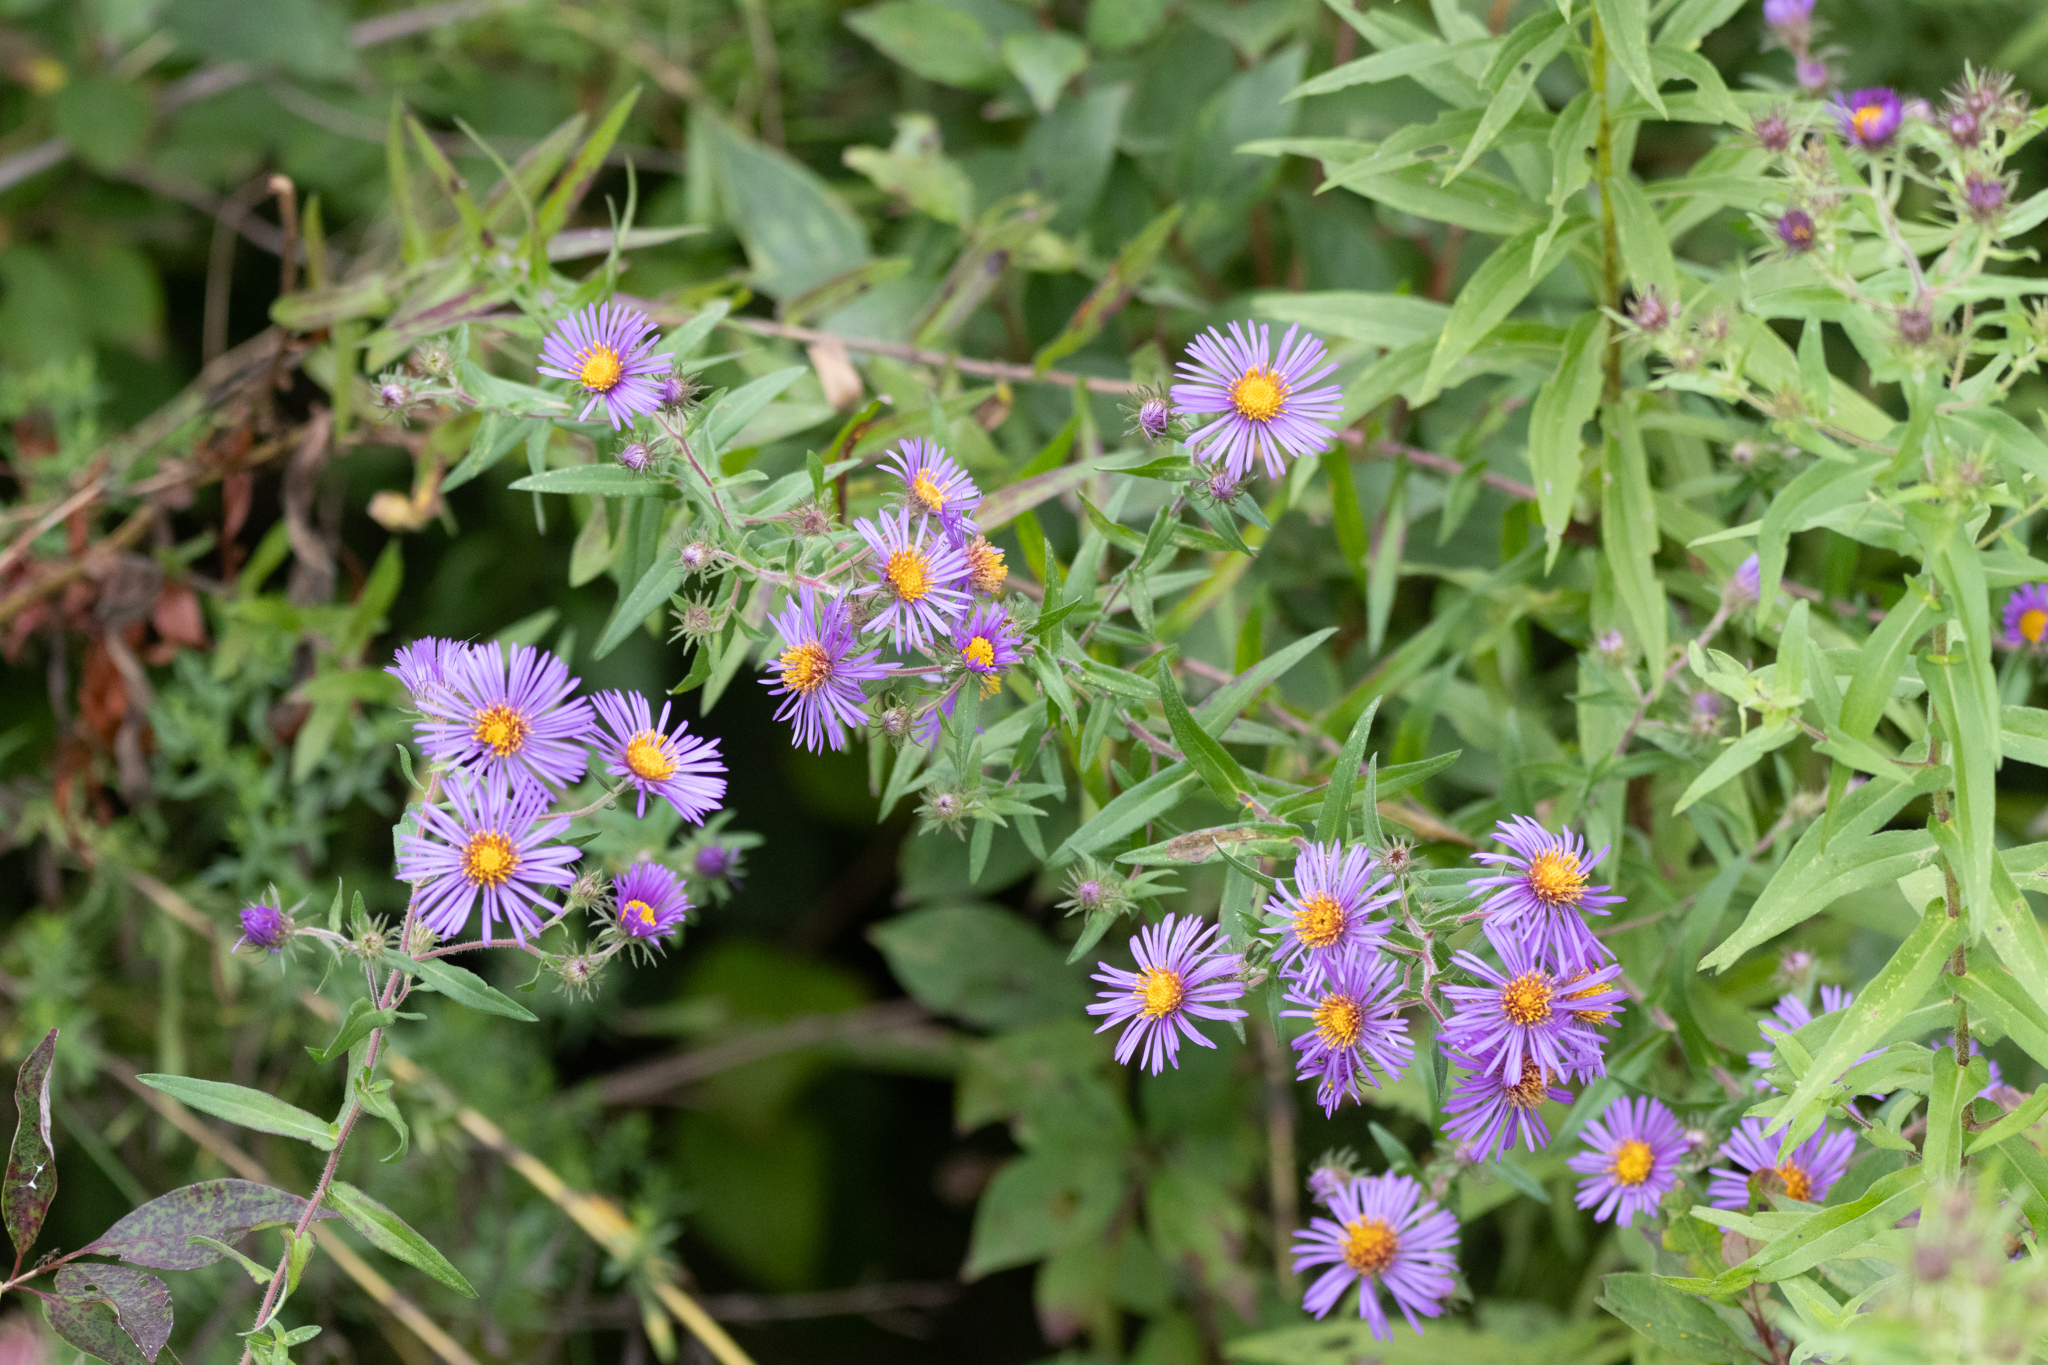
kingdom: Plantae
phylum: Tracheophyta
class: Magnoliopsida
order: Asterales
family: Asteraceae
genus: Symphyotrichum
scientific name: Symphyotrichum novae-angliae
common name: Michaelmas daisy
